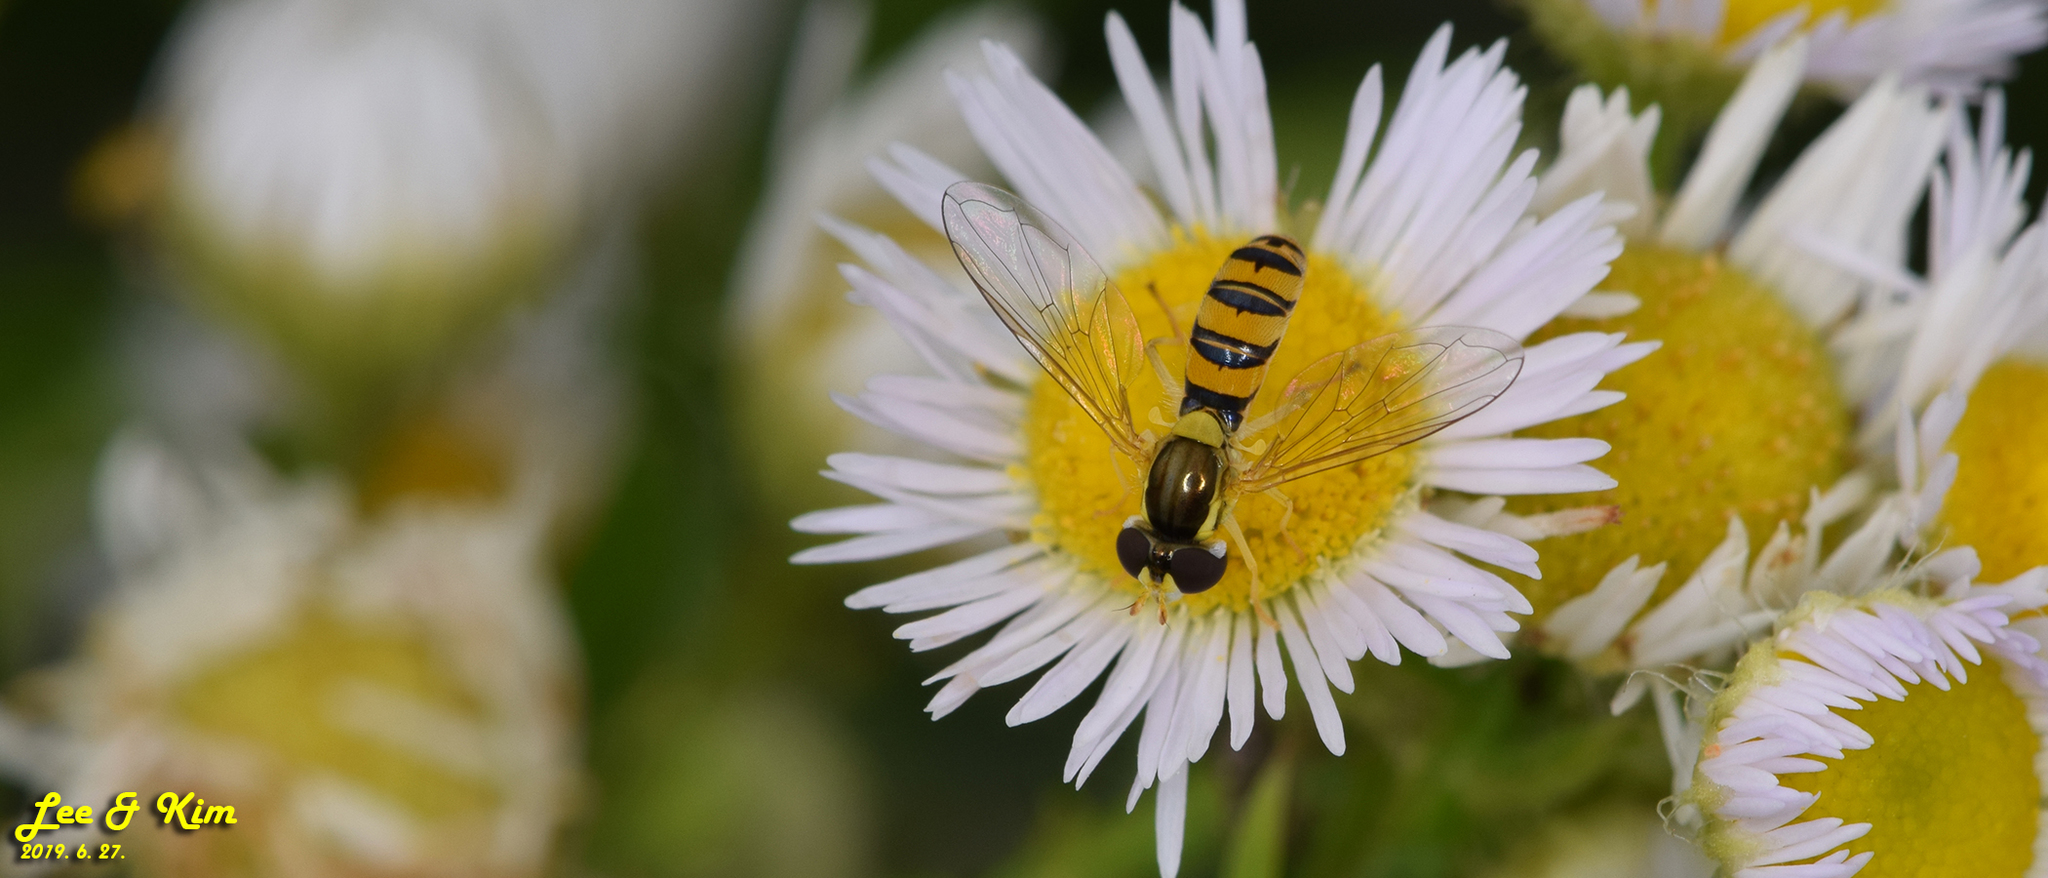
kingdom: Animalia
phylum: Arthropoda
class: Insecta
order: Diptera
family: Syrphidae
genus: Sphaerophoria
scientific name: Sphaerophoria scripta
